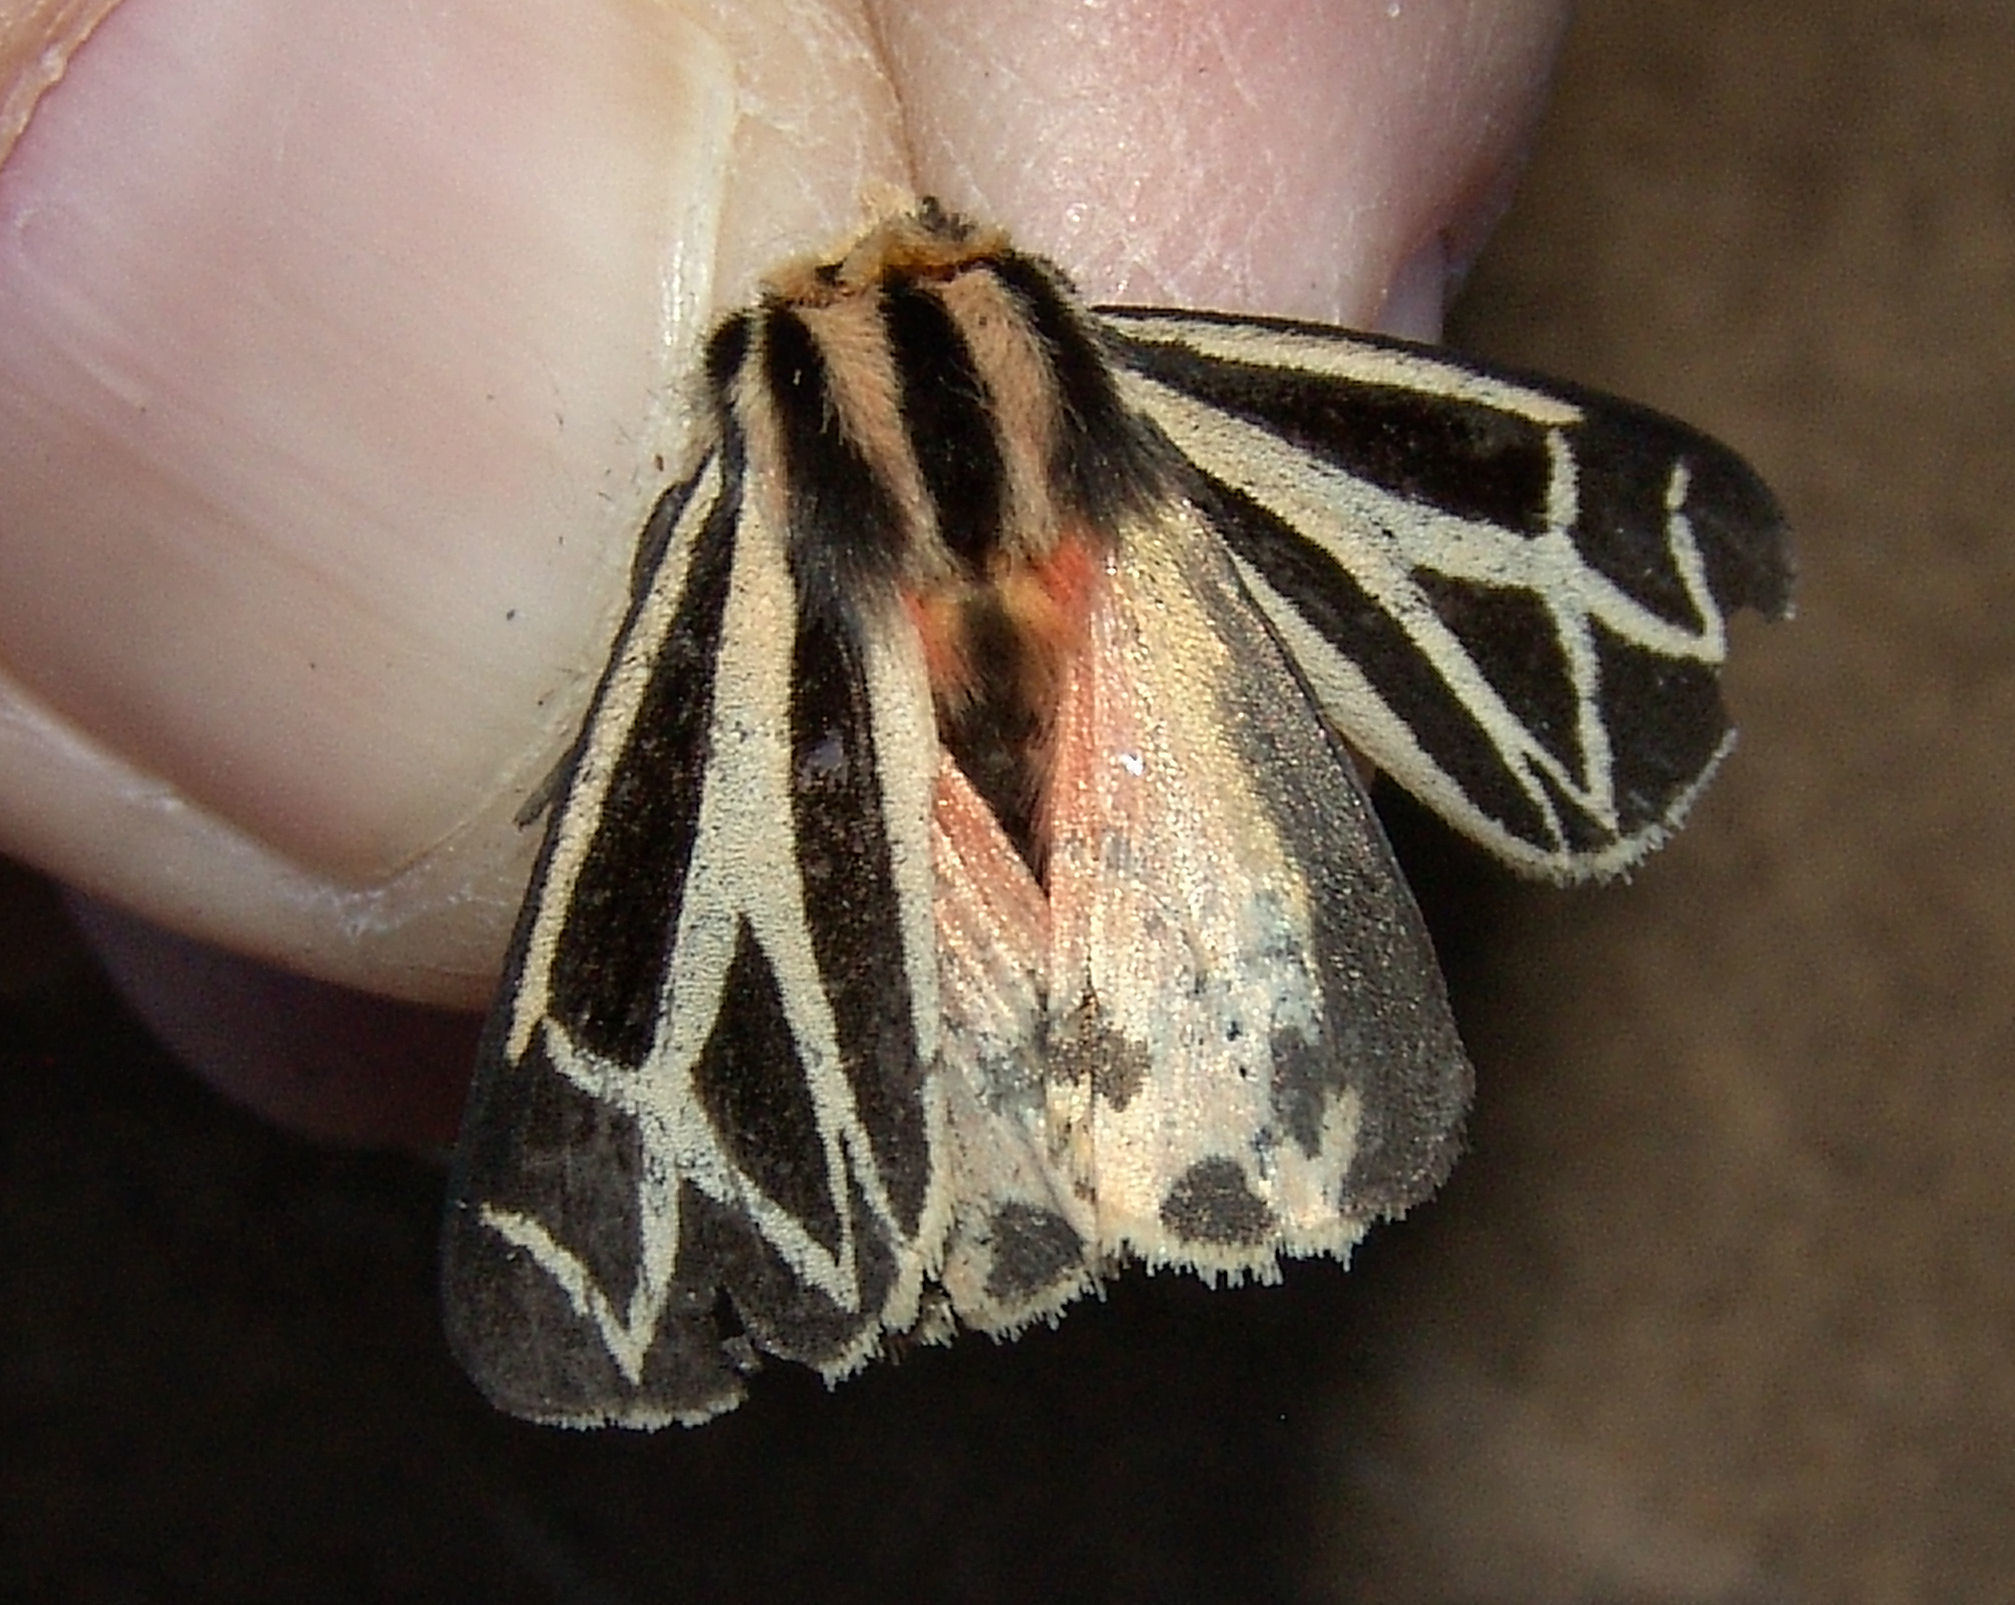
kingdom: Animalia
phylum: Arthropoda
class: Insecta
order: Lepidoptera
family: Erebidae
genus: Apantesis
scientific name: Apantesis phalerata
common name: Harnessed tiger moth
